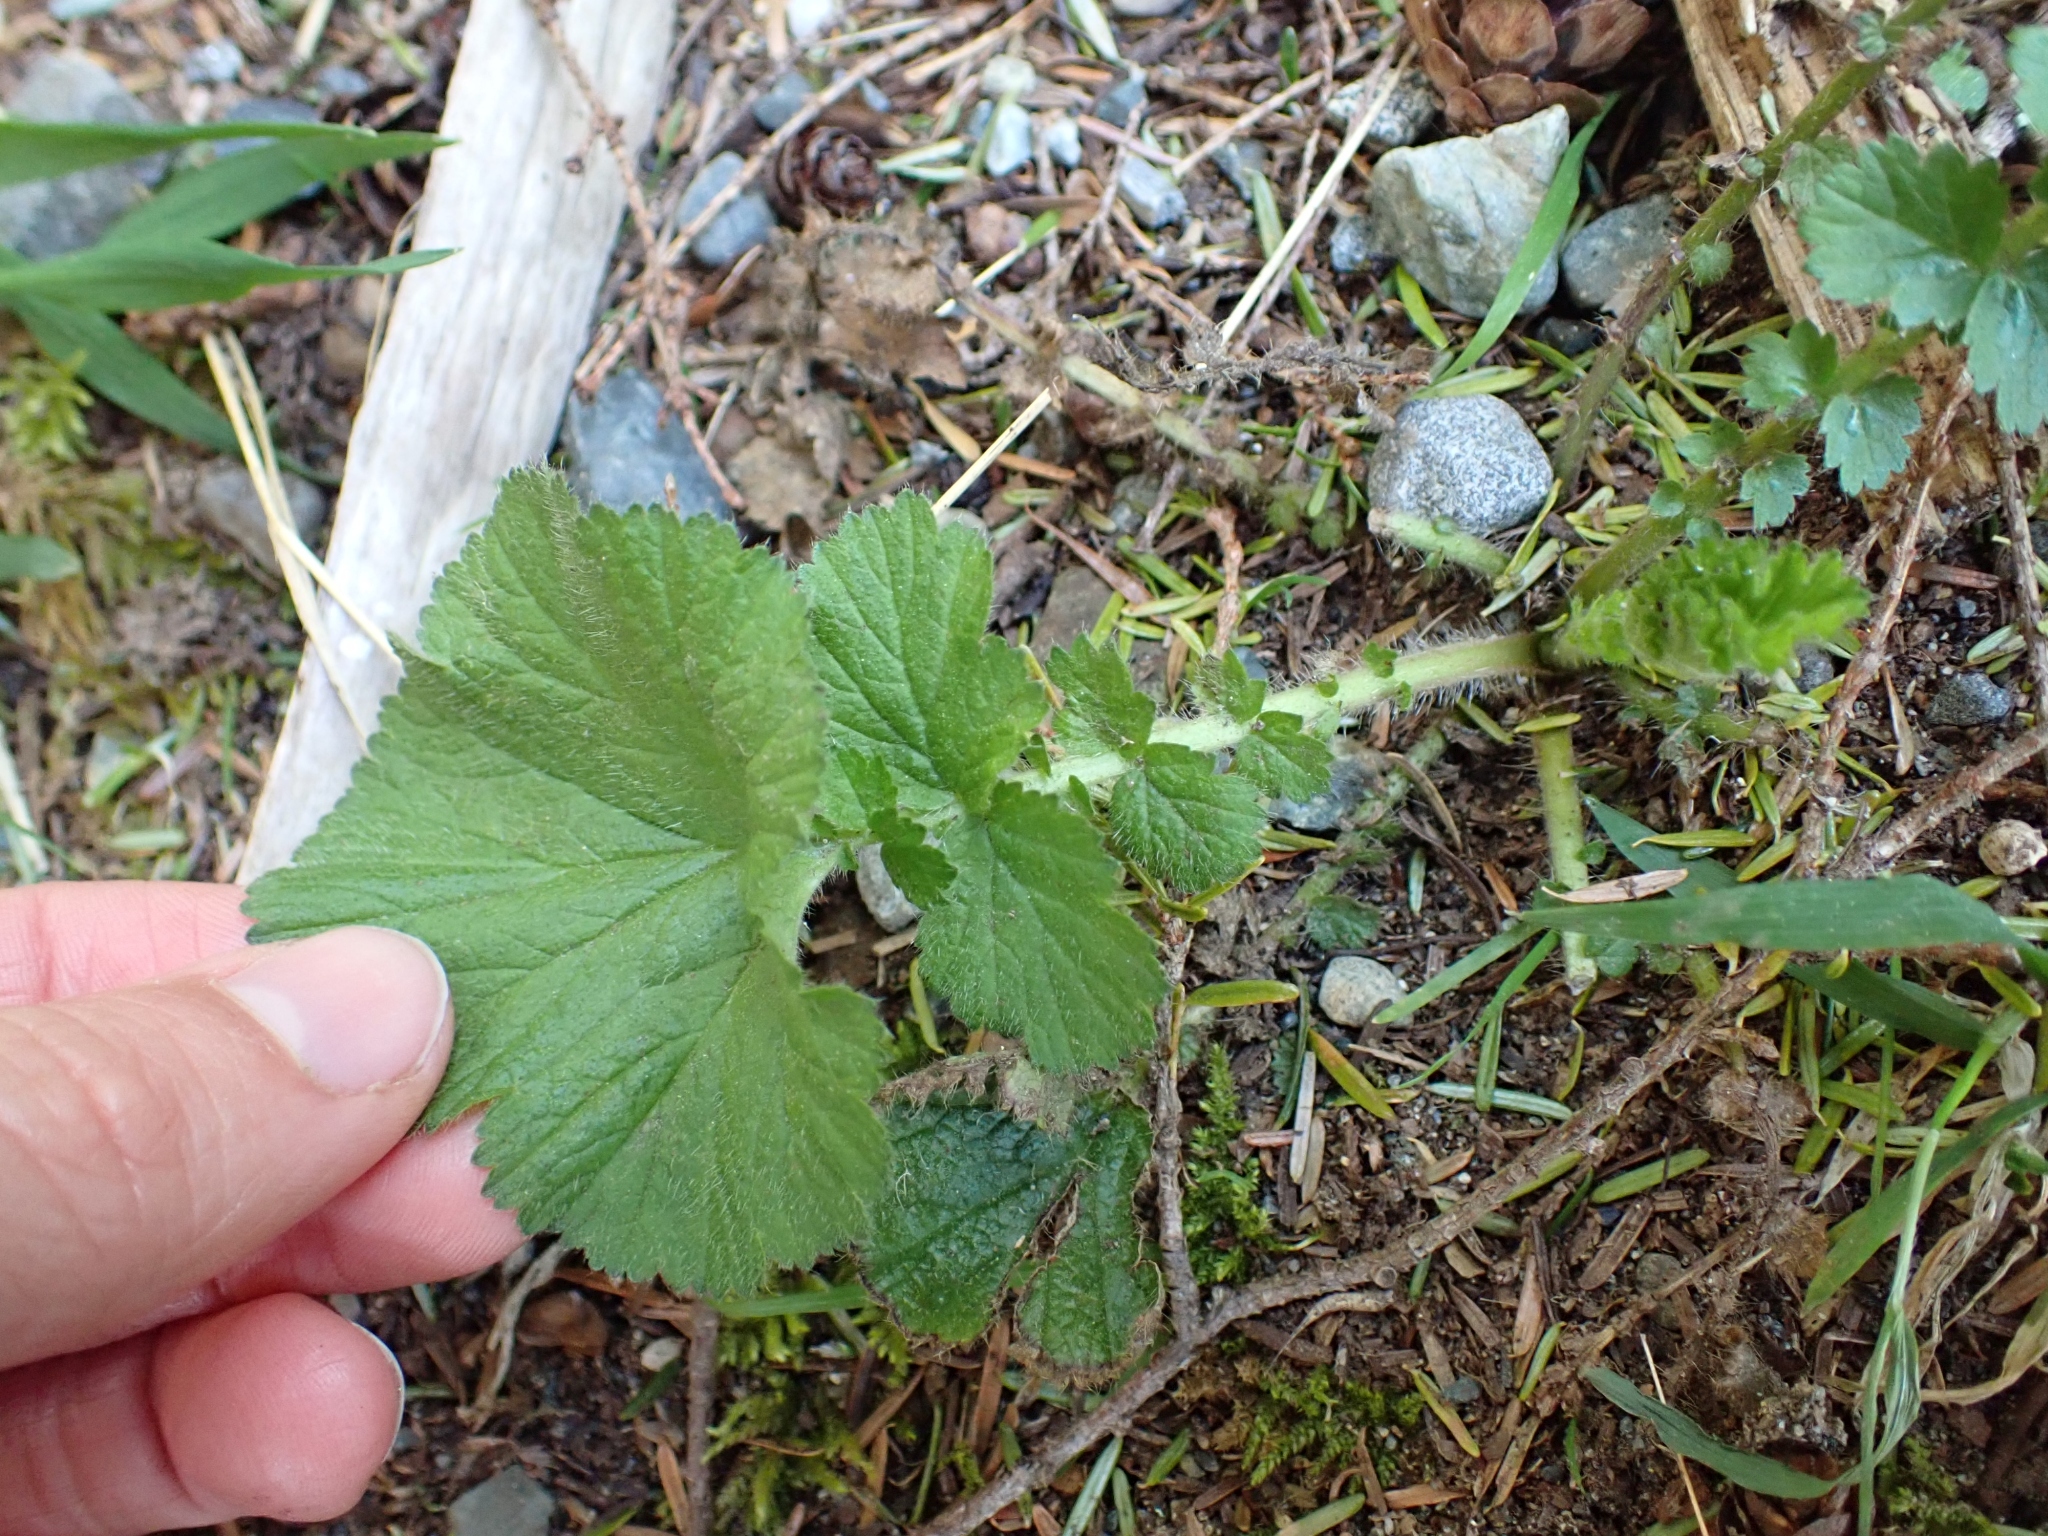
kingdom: Plantae
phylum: Tracheophyta
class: Magnoliopsida
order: Rosales
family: Rosaceae
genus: Geum
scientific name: Geum macrophyllum
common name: Large-leaved avens
